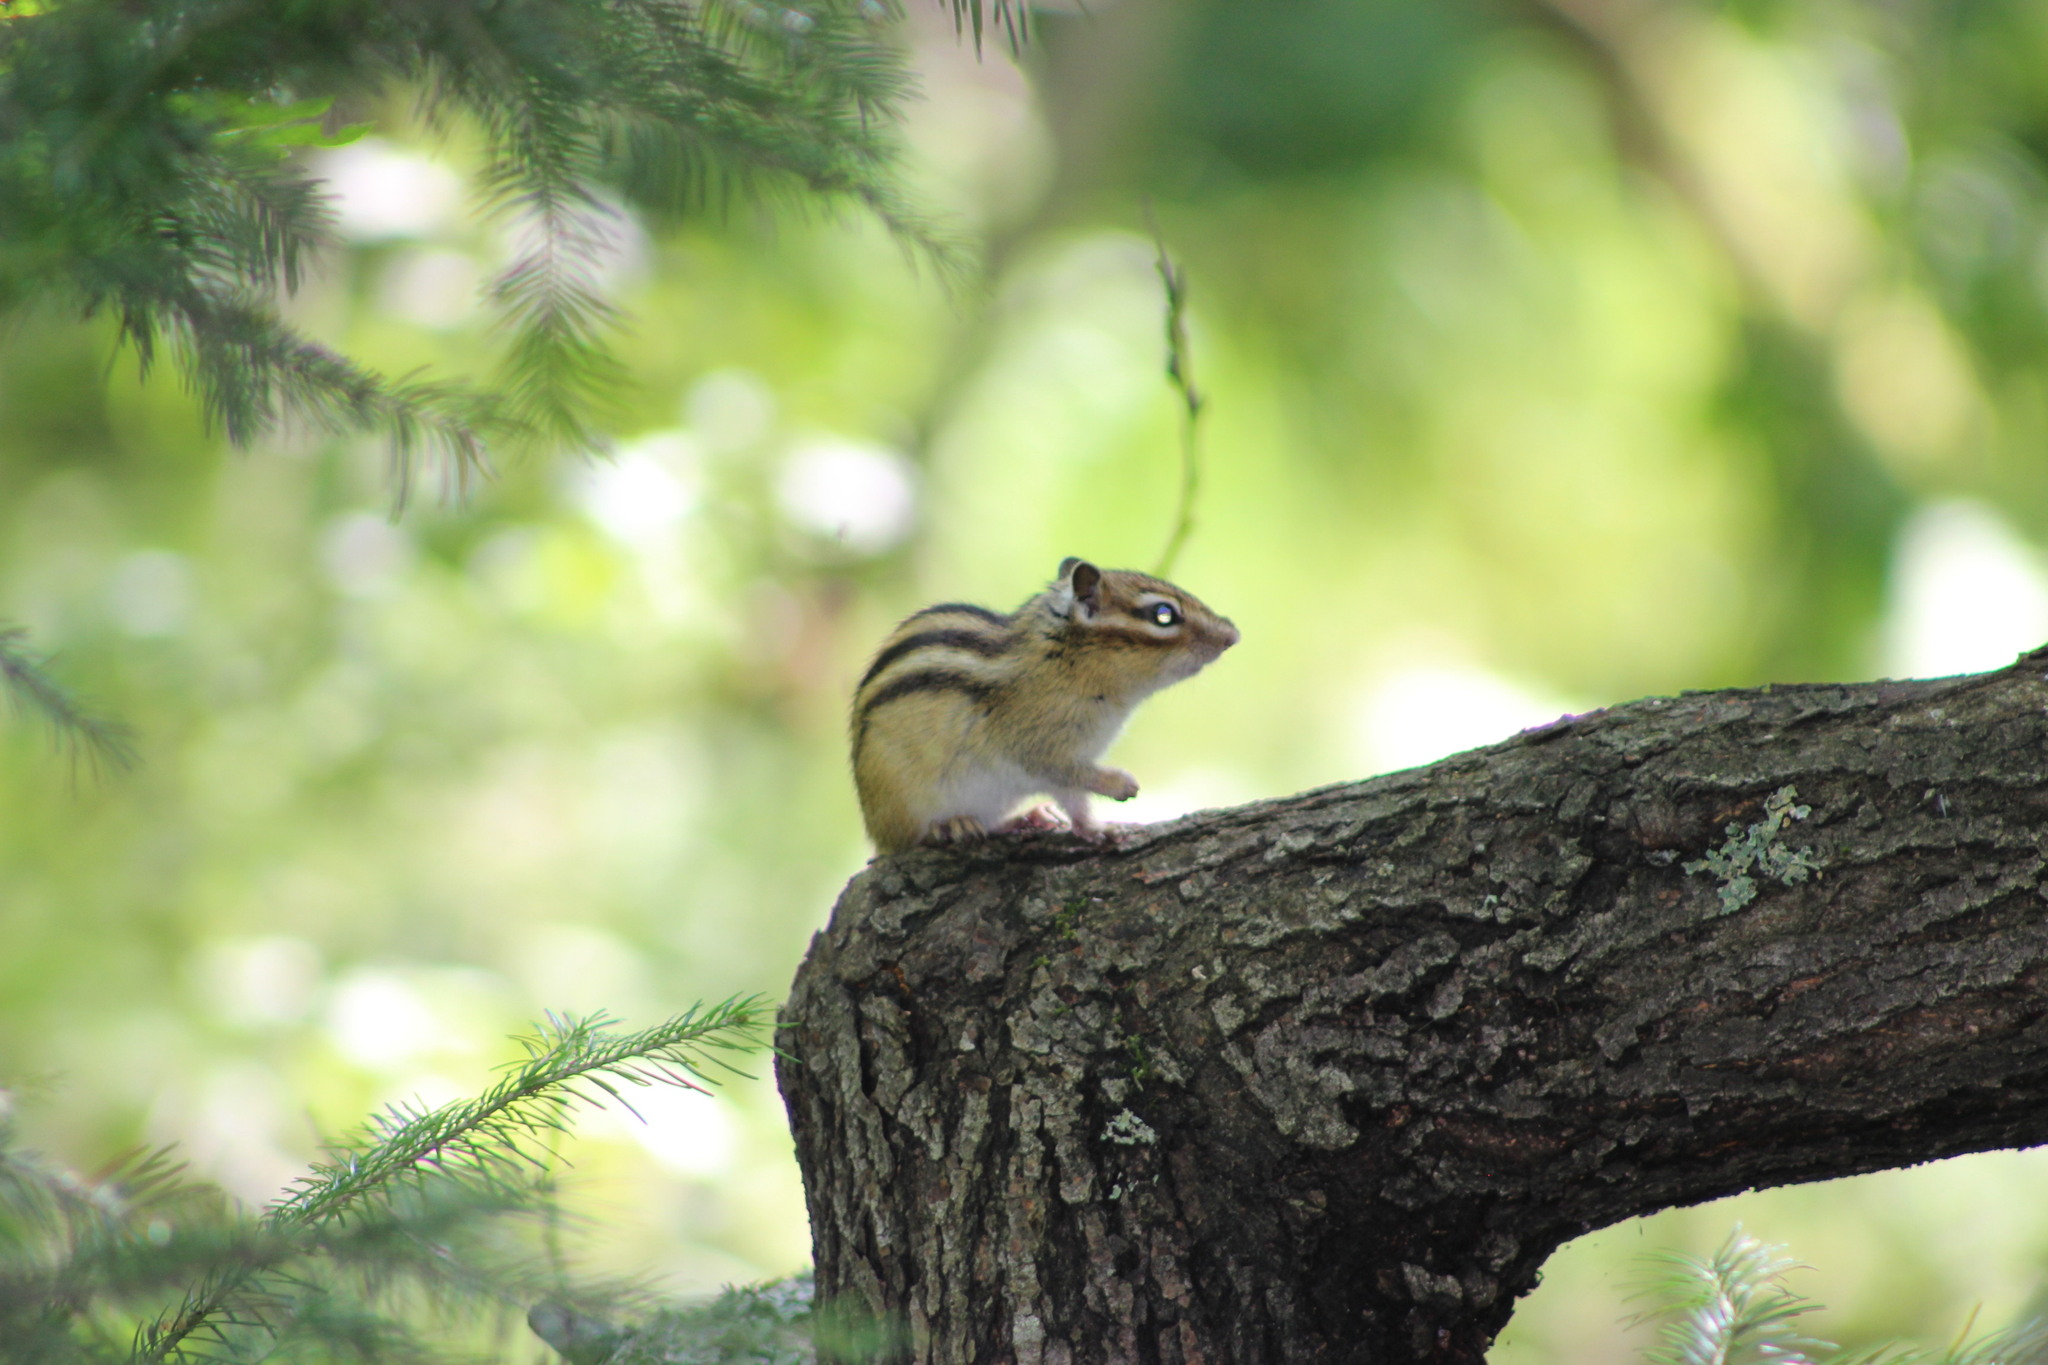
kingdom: Animalia
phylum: Chordata
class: Mammalia
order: Rodentia
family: Sciuridae
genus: Tamias
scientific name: Tamias sibiricus
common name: Siberian chipmunk
